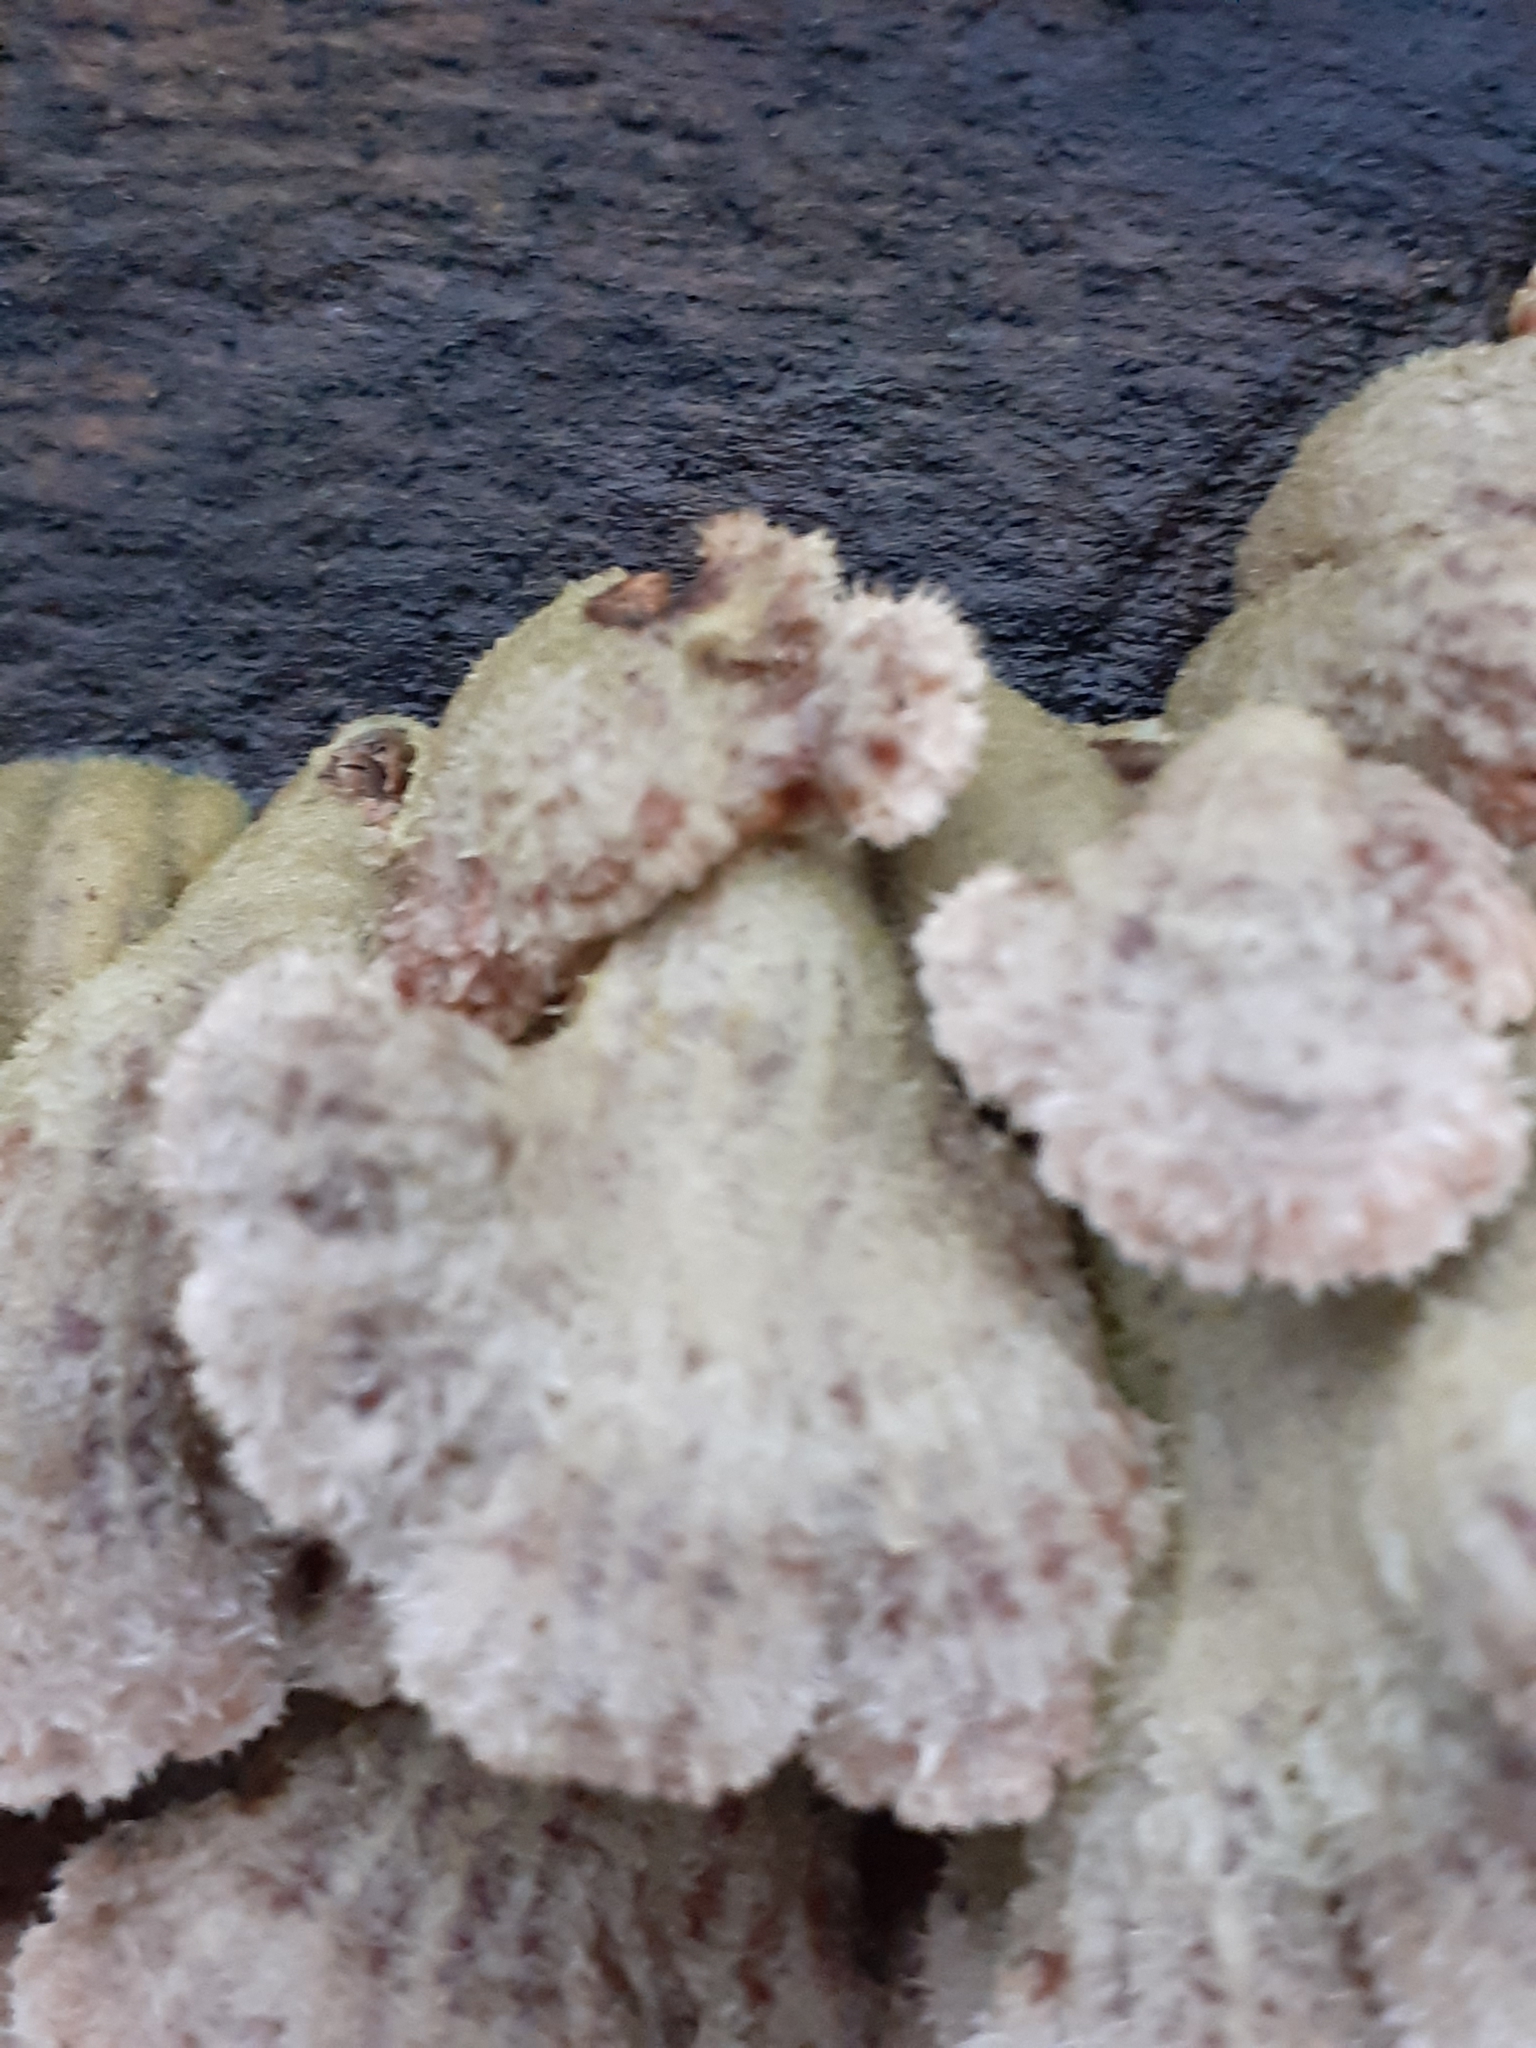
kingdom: Fungi
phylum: Basidiomycota
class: Agaricomycetes
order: Agaricales
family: Schizophyllaceae
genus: Schizophyllum
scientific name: Schizophyllum commune
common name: Common porecrust
